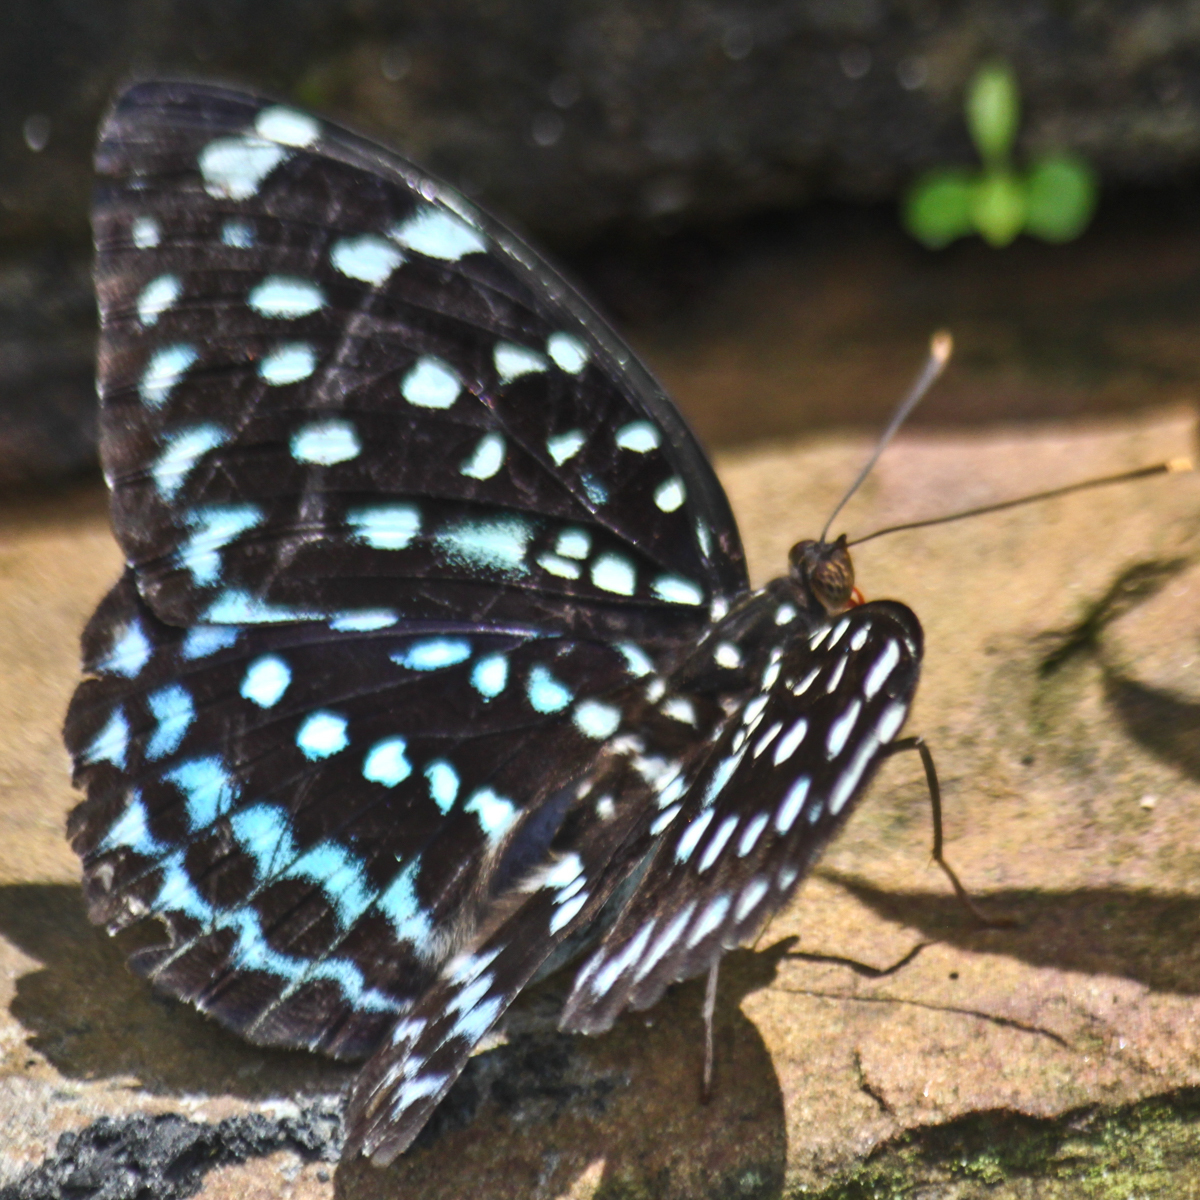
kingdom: Animalia
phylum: Arthropoda
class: Insecta
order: Lepidoptera
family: Nymphalidae
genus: Lexias
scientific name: Lexias
